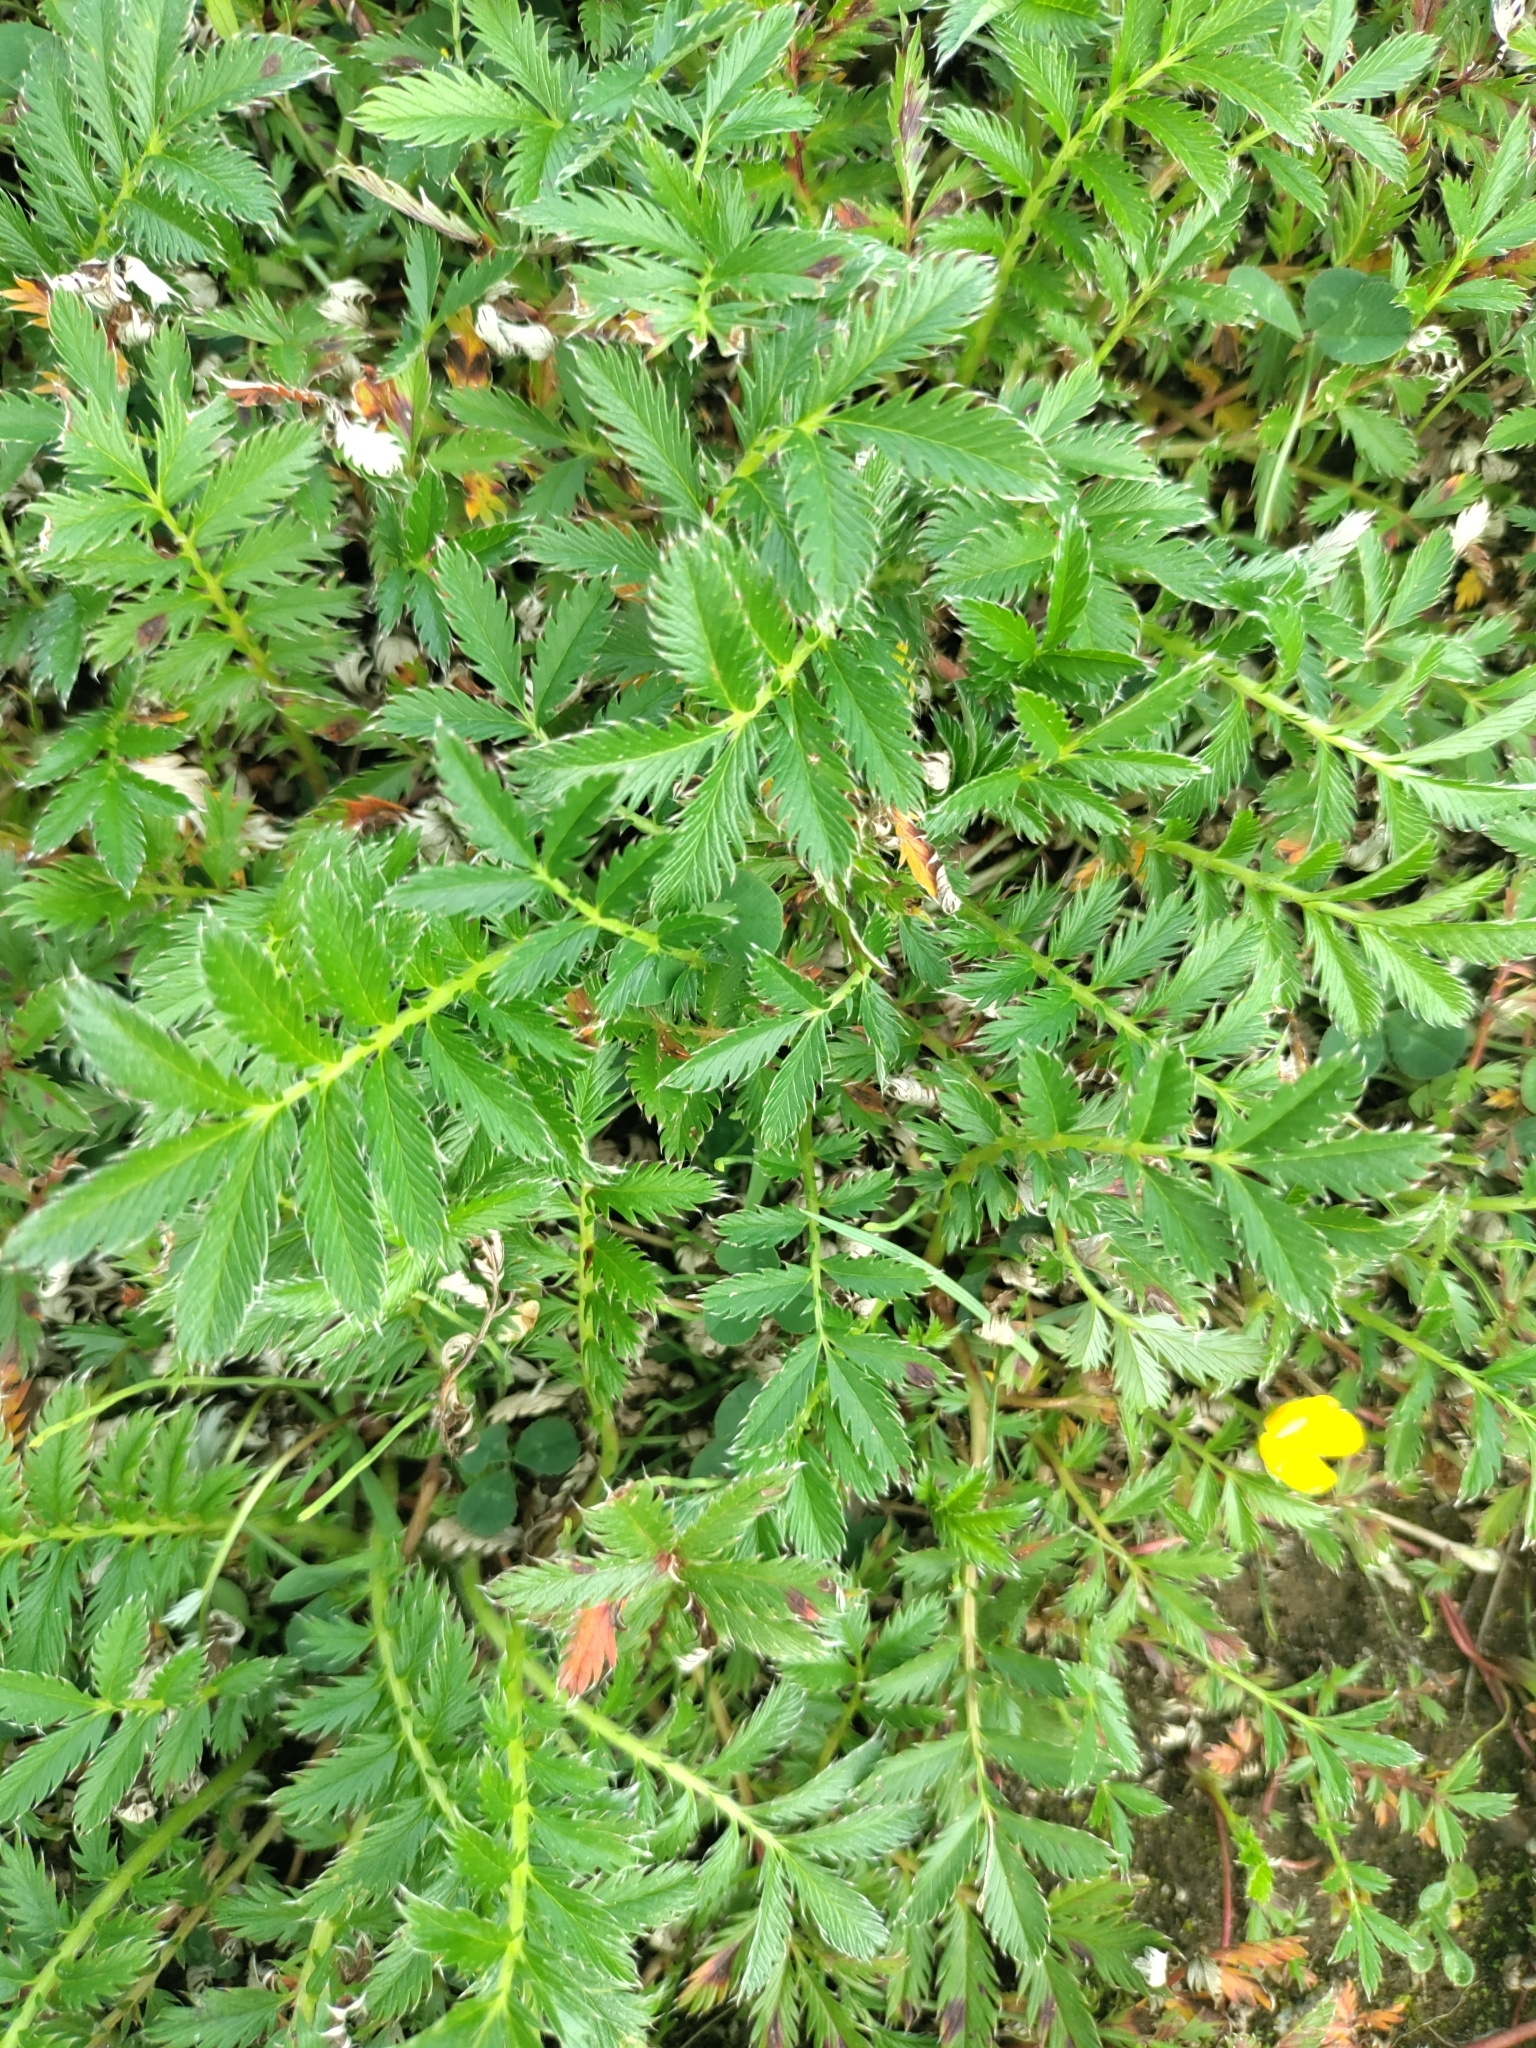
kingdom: Plantae
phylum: Tracheophyta
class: Magnoliopsida
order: Rosales
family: Rosaceae
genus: Argentina
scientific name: Argentina anserina
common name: Common silverweed
